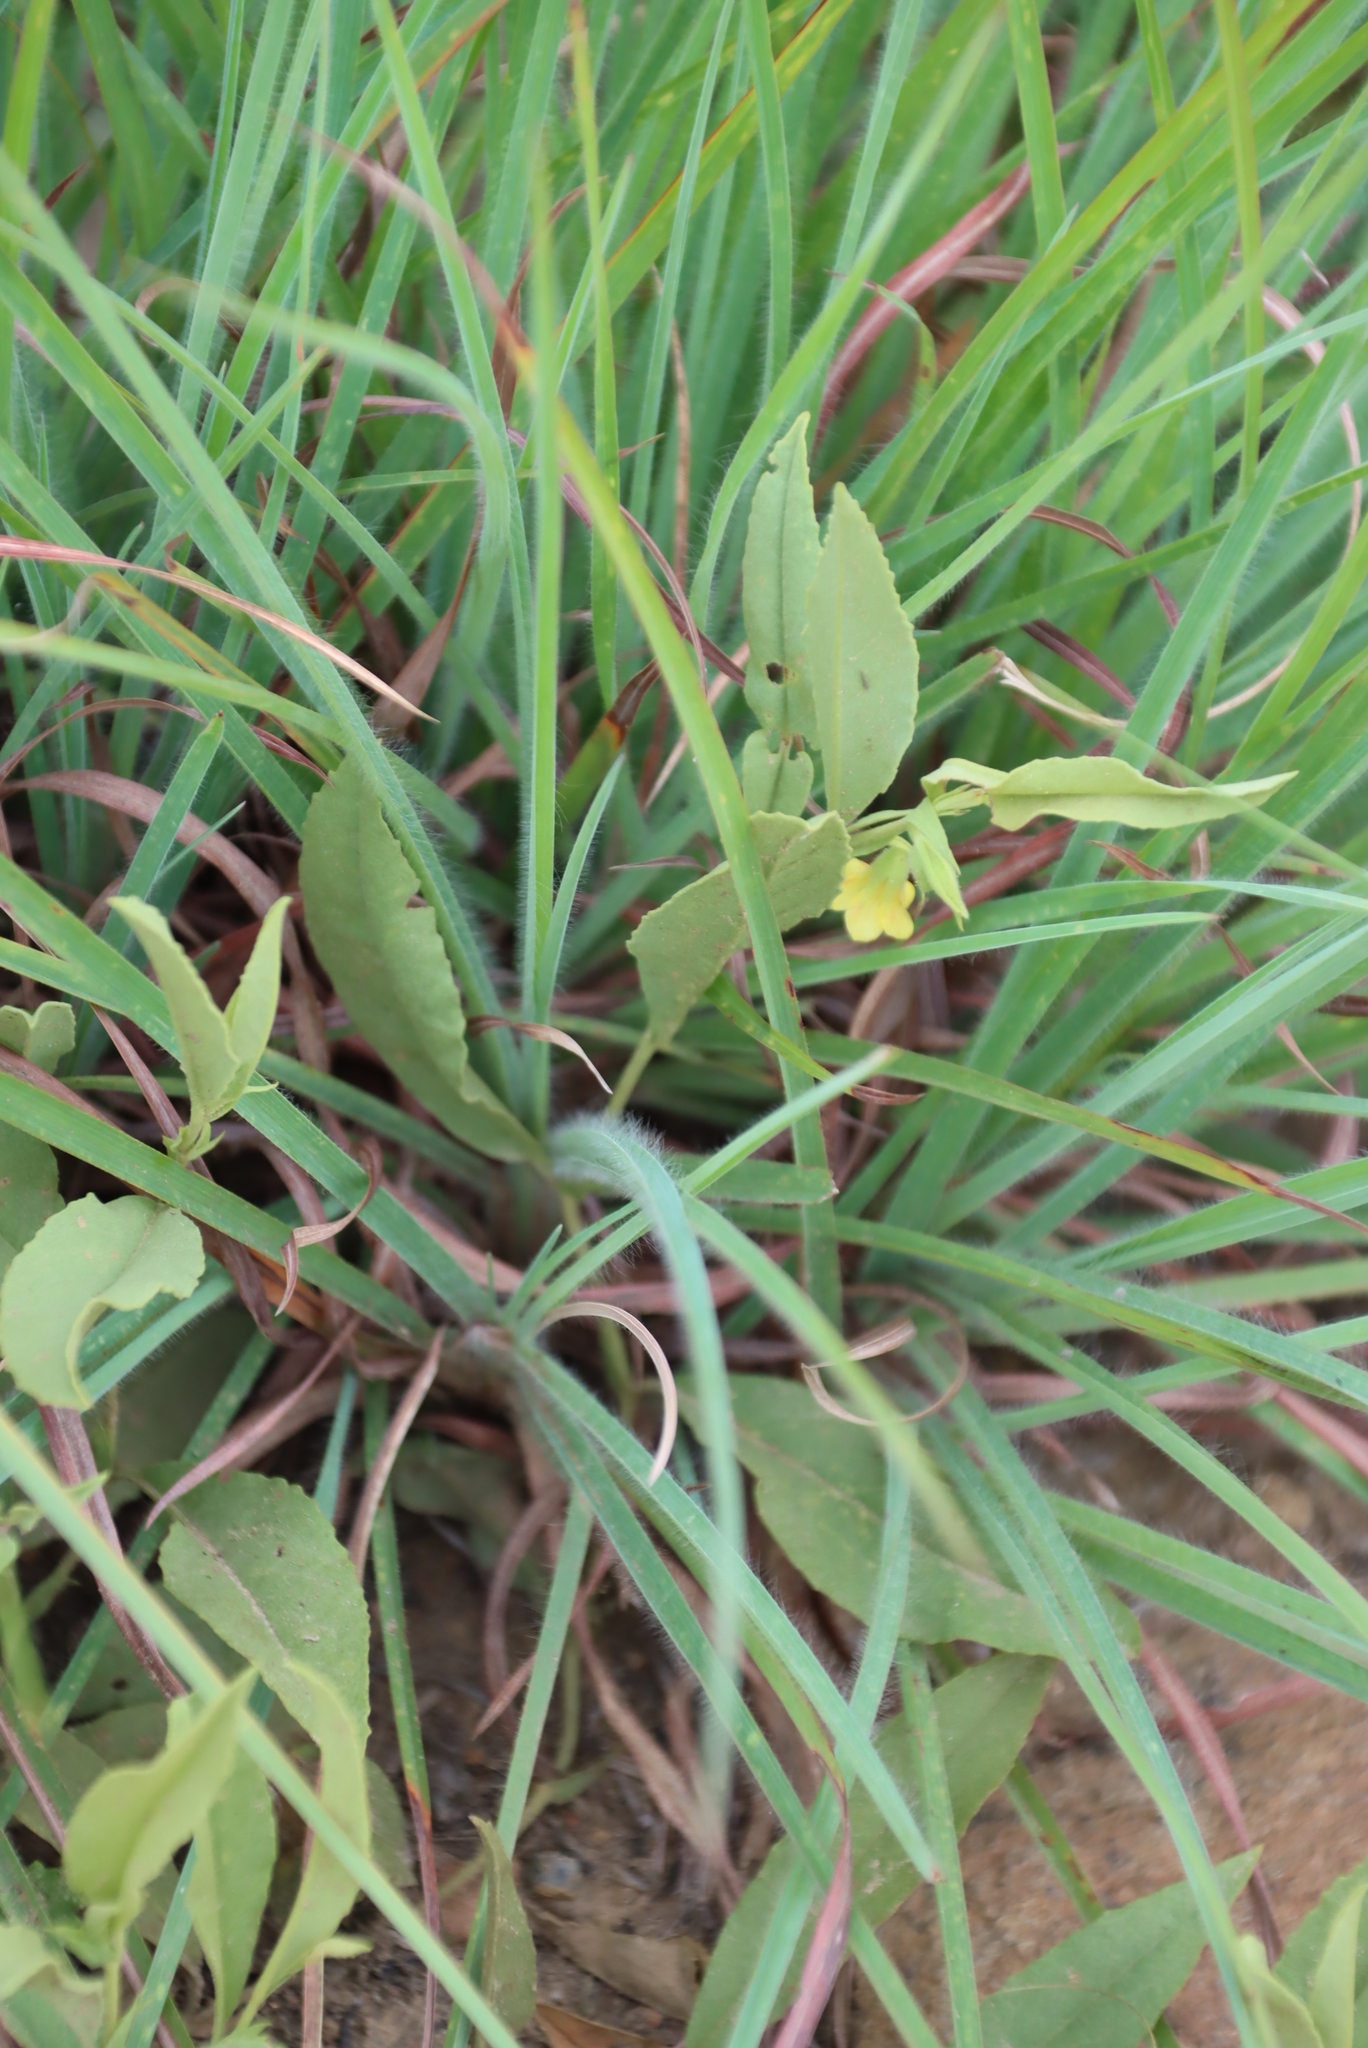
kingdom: Plantae
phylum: Tracheophyta
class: Magnoliopsida
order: Malvales
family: Malvaceae
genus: Hermannia
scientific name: Hermannia montana
